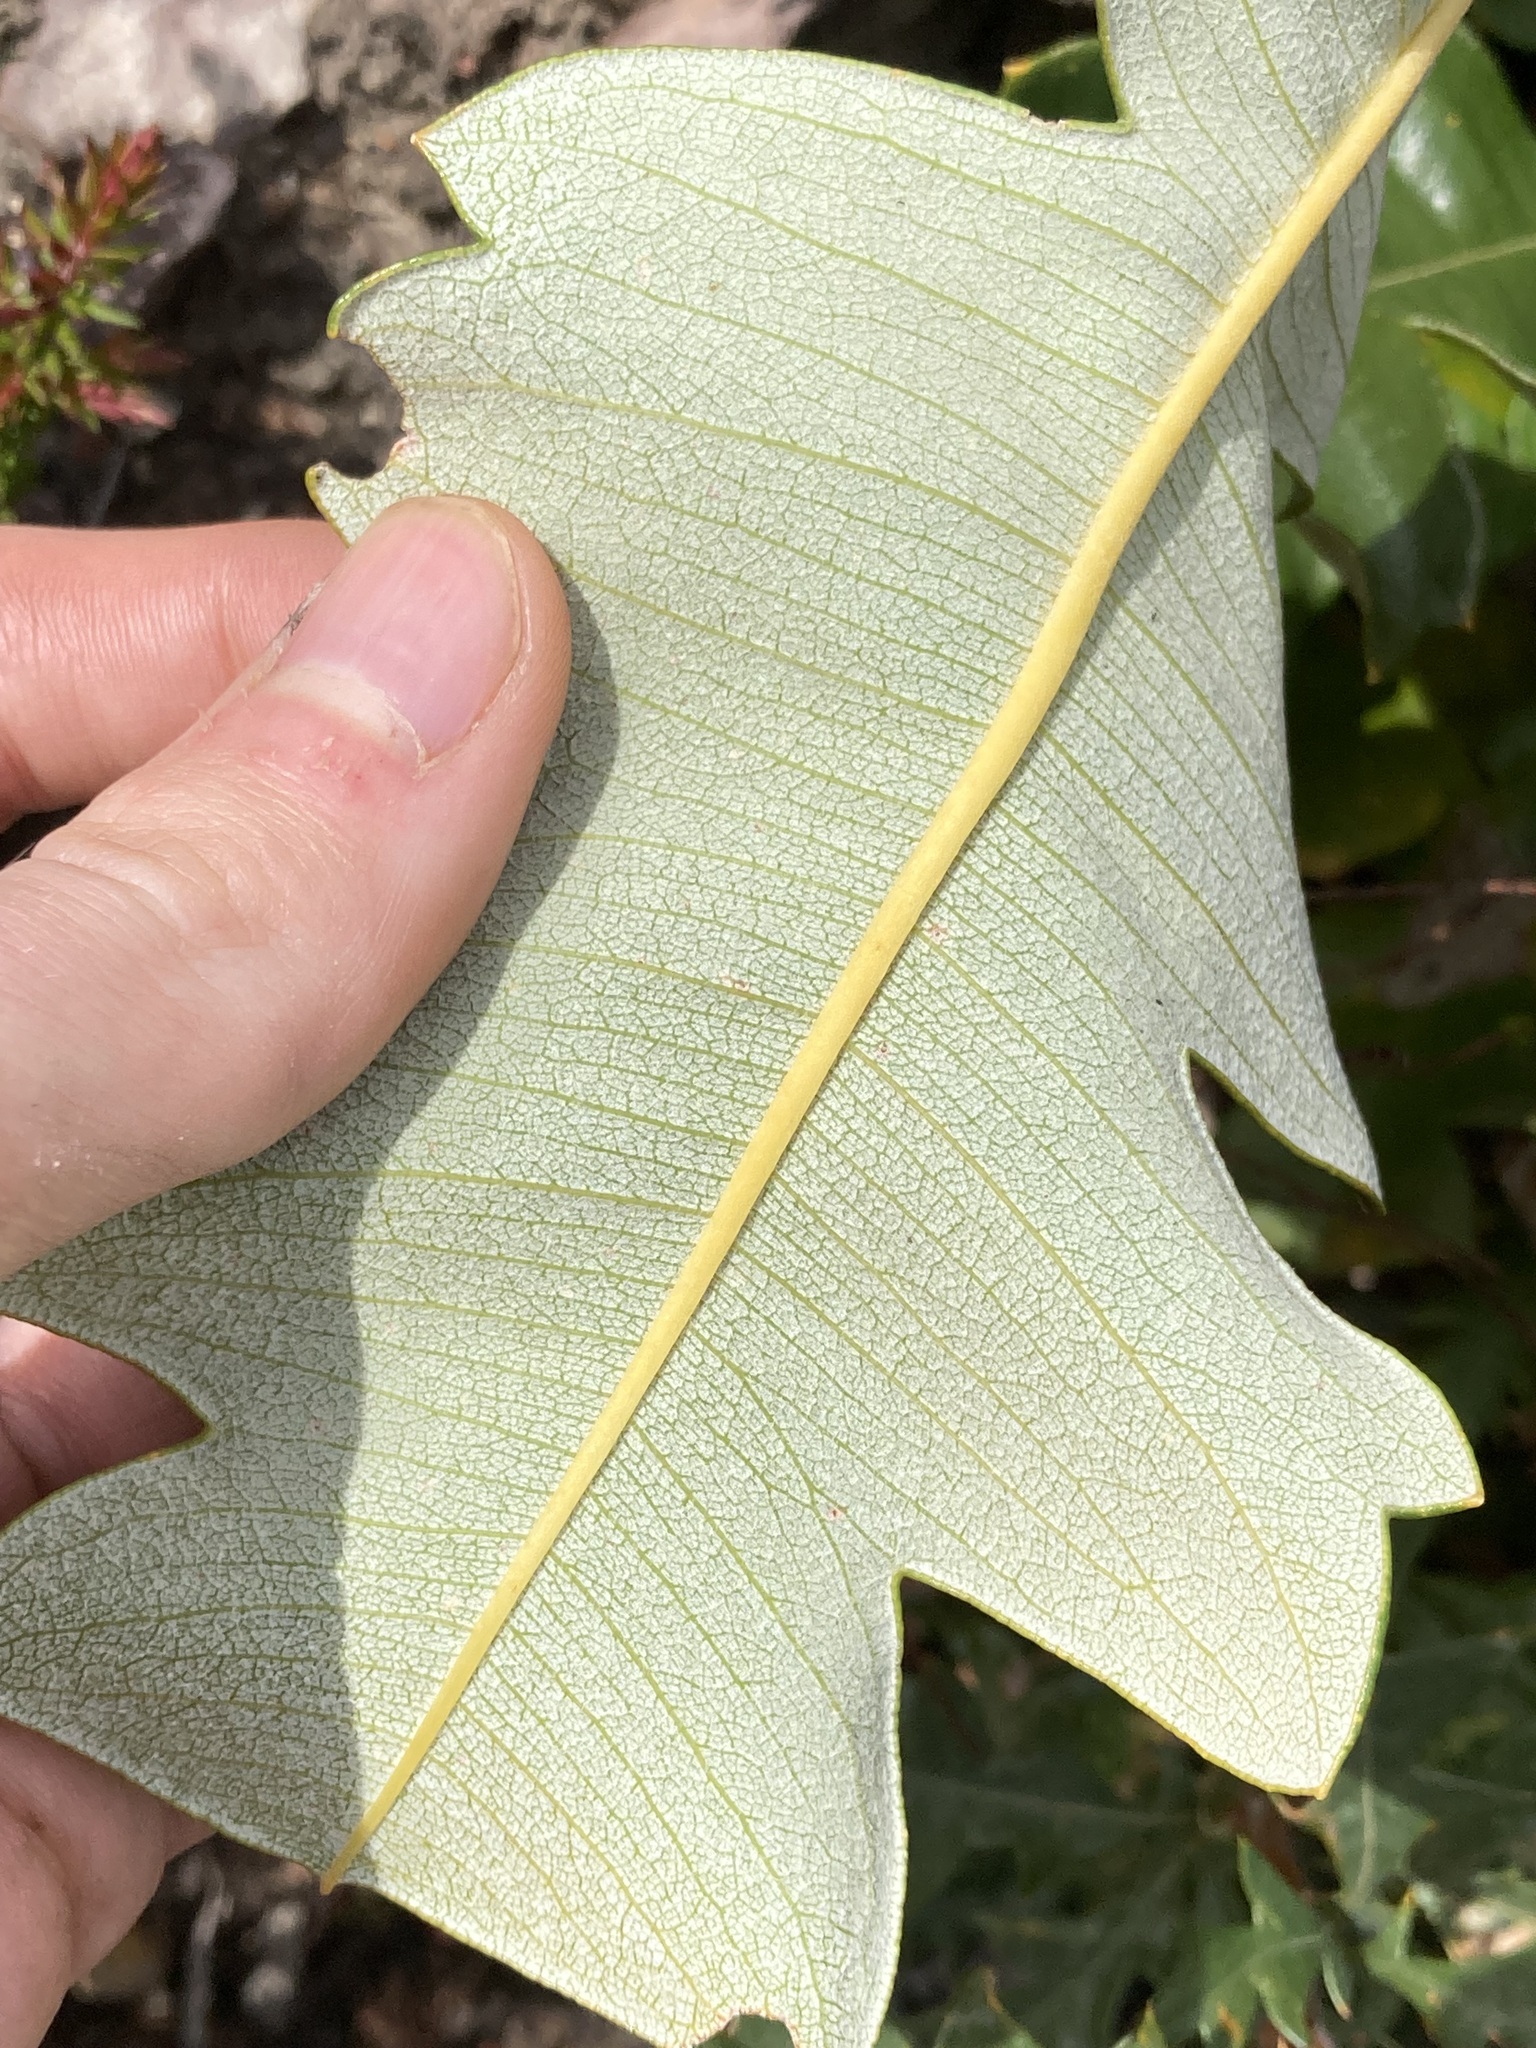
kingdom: Plantae
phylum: Tracheophyta
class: Magnoliopsida
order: Proteales
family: Proteaceae
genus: Banksia
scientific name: Banksia grandis
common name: Giant banksia
